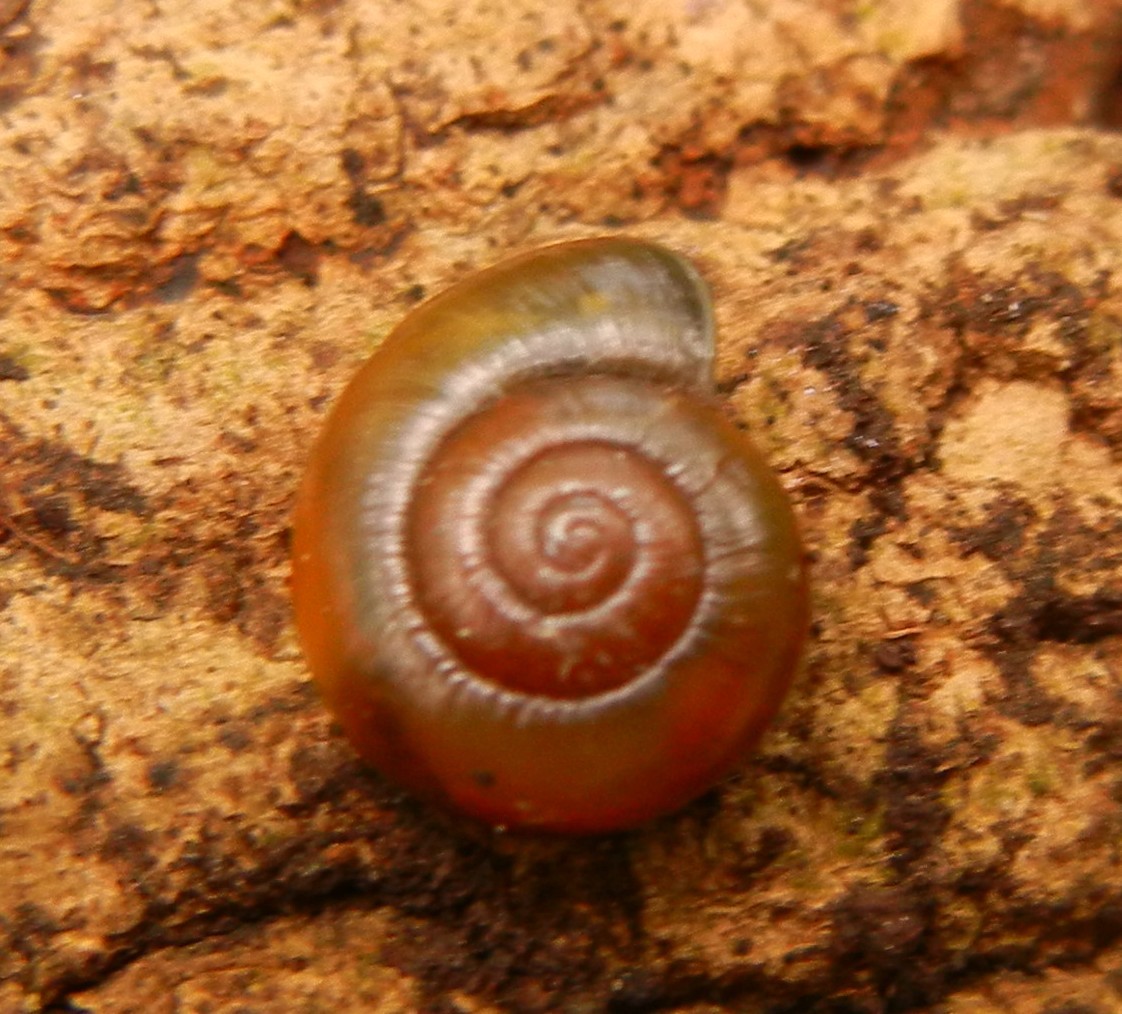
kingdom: Animalia
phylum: Mollusca
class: Gastropoda
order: Stylommatophora
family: Gastrodontidae
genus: Aegopinella
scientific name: Aegopinella nitidula
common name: Smooth glass snail
